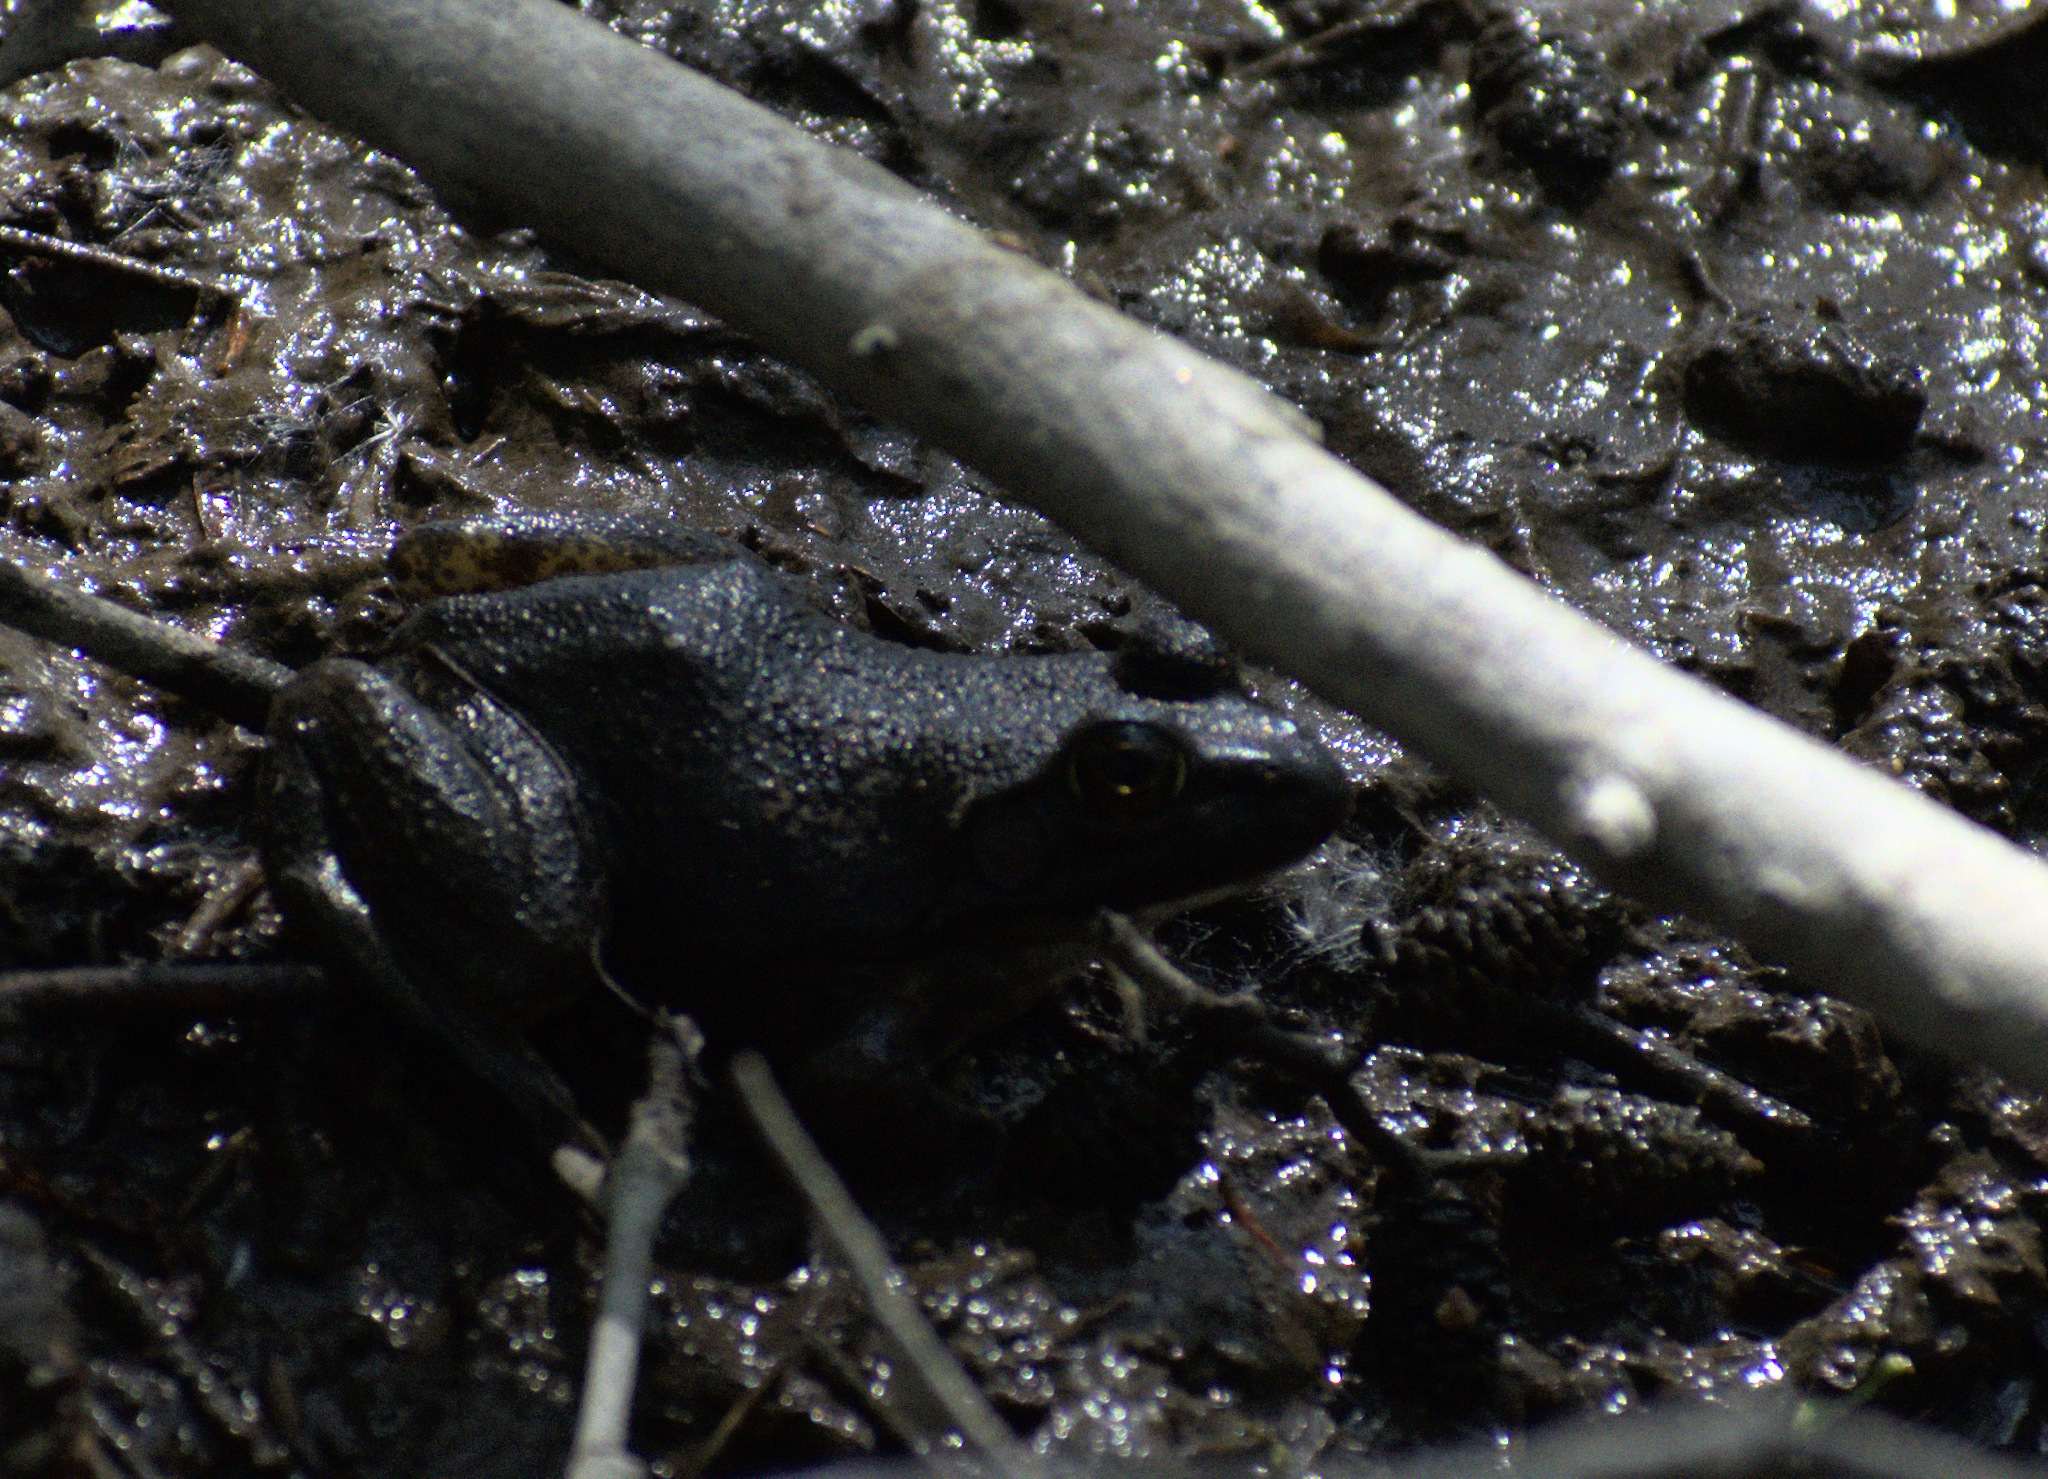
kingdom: Animalia
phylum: Chordata
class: Amphibia
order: Anura
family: Ranidae
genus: Lithobates
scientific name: Lithobates catesbeianus
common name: American bullfrog
